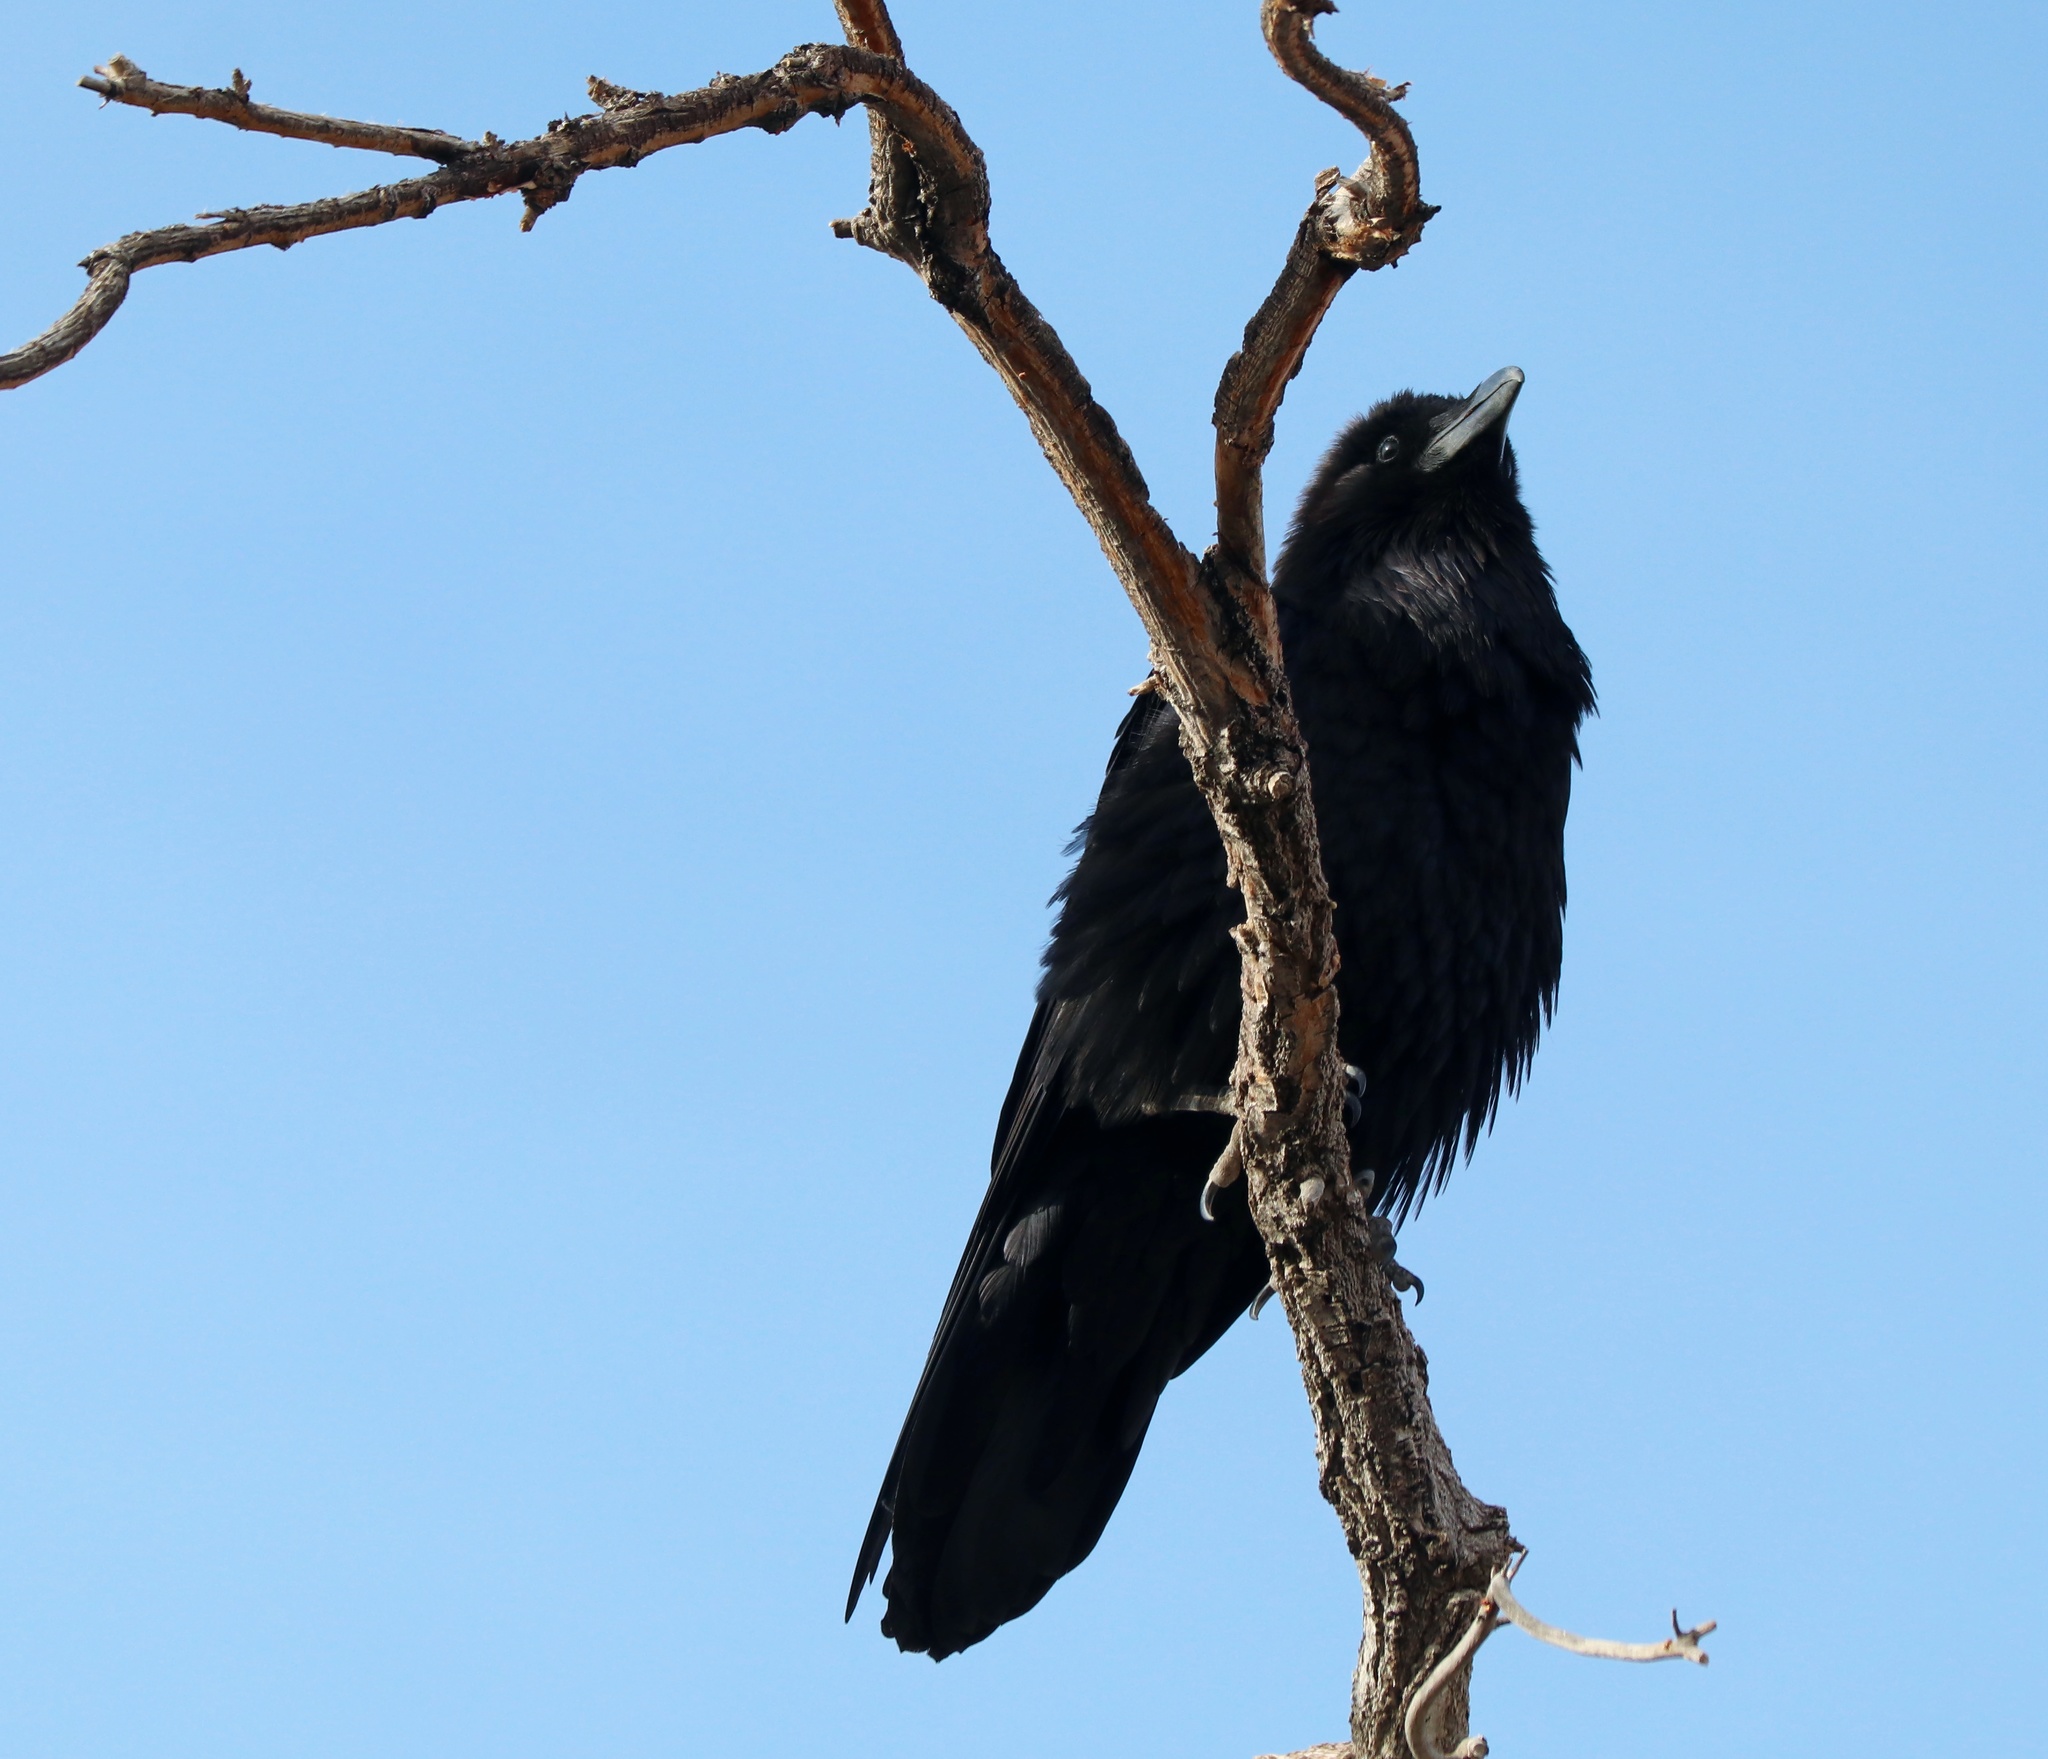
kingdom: Animalia
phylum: Chordata
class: Aves
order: Passeriformes
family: Corvidae
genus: Corvus
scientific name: Corvus corax
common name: Common raven
